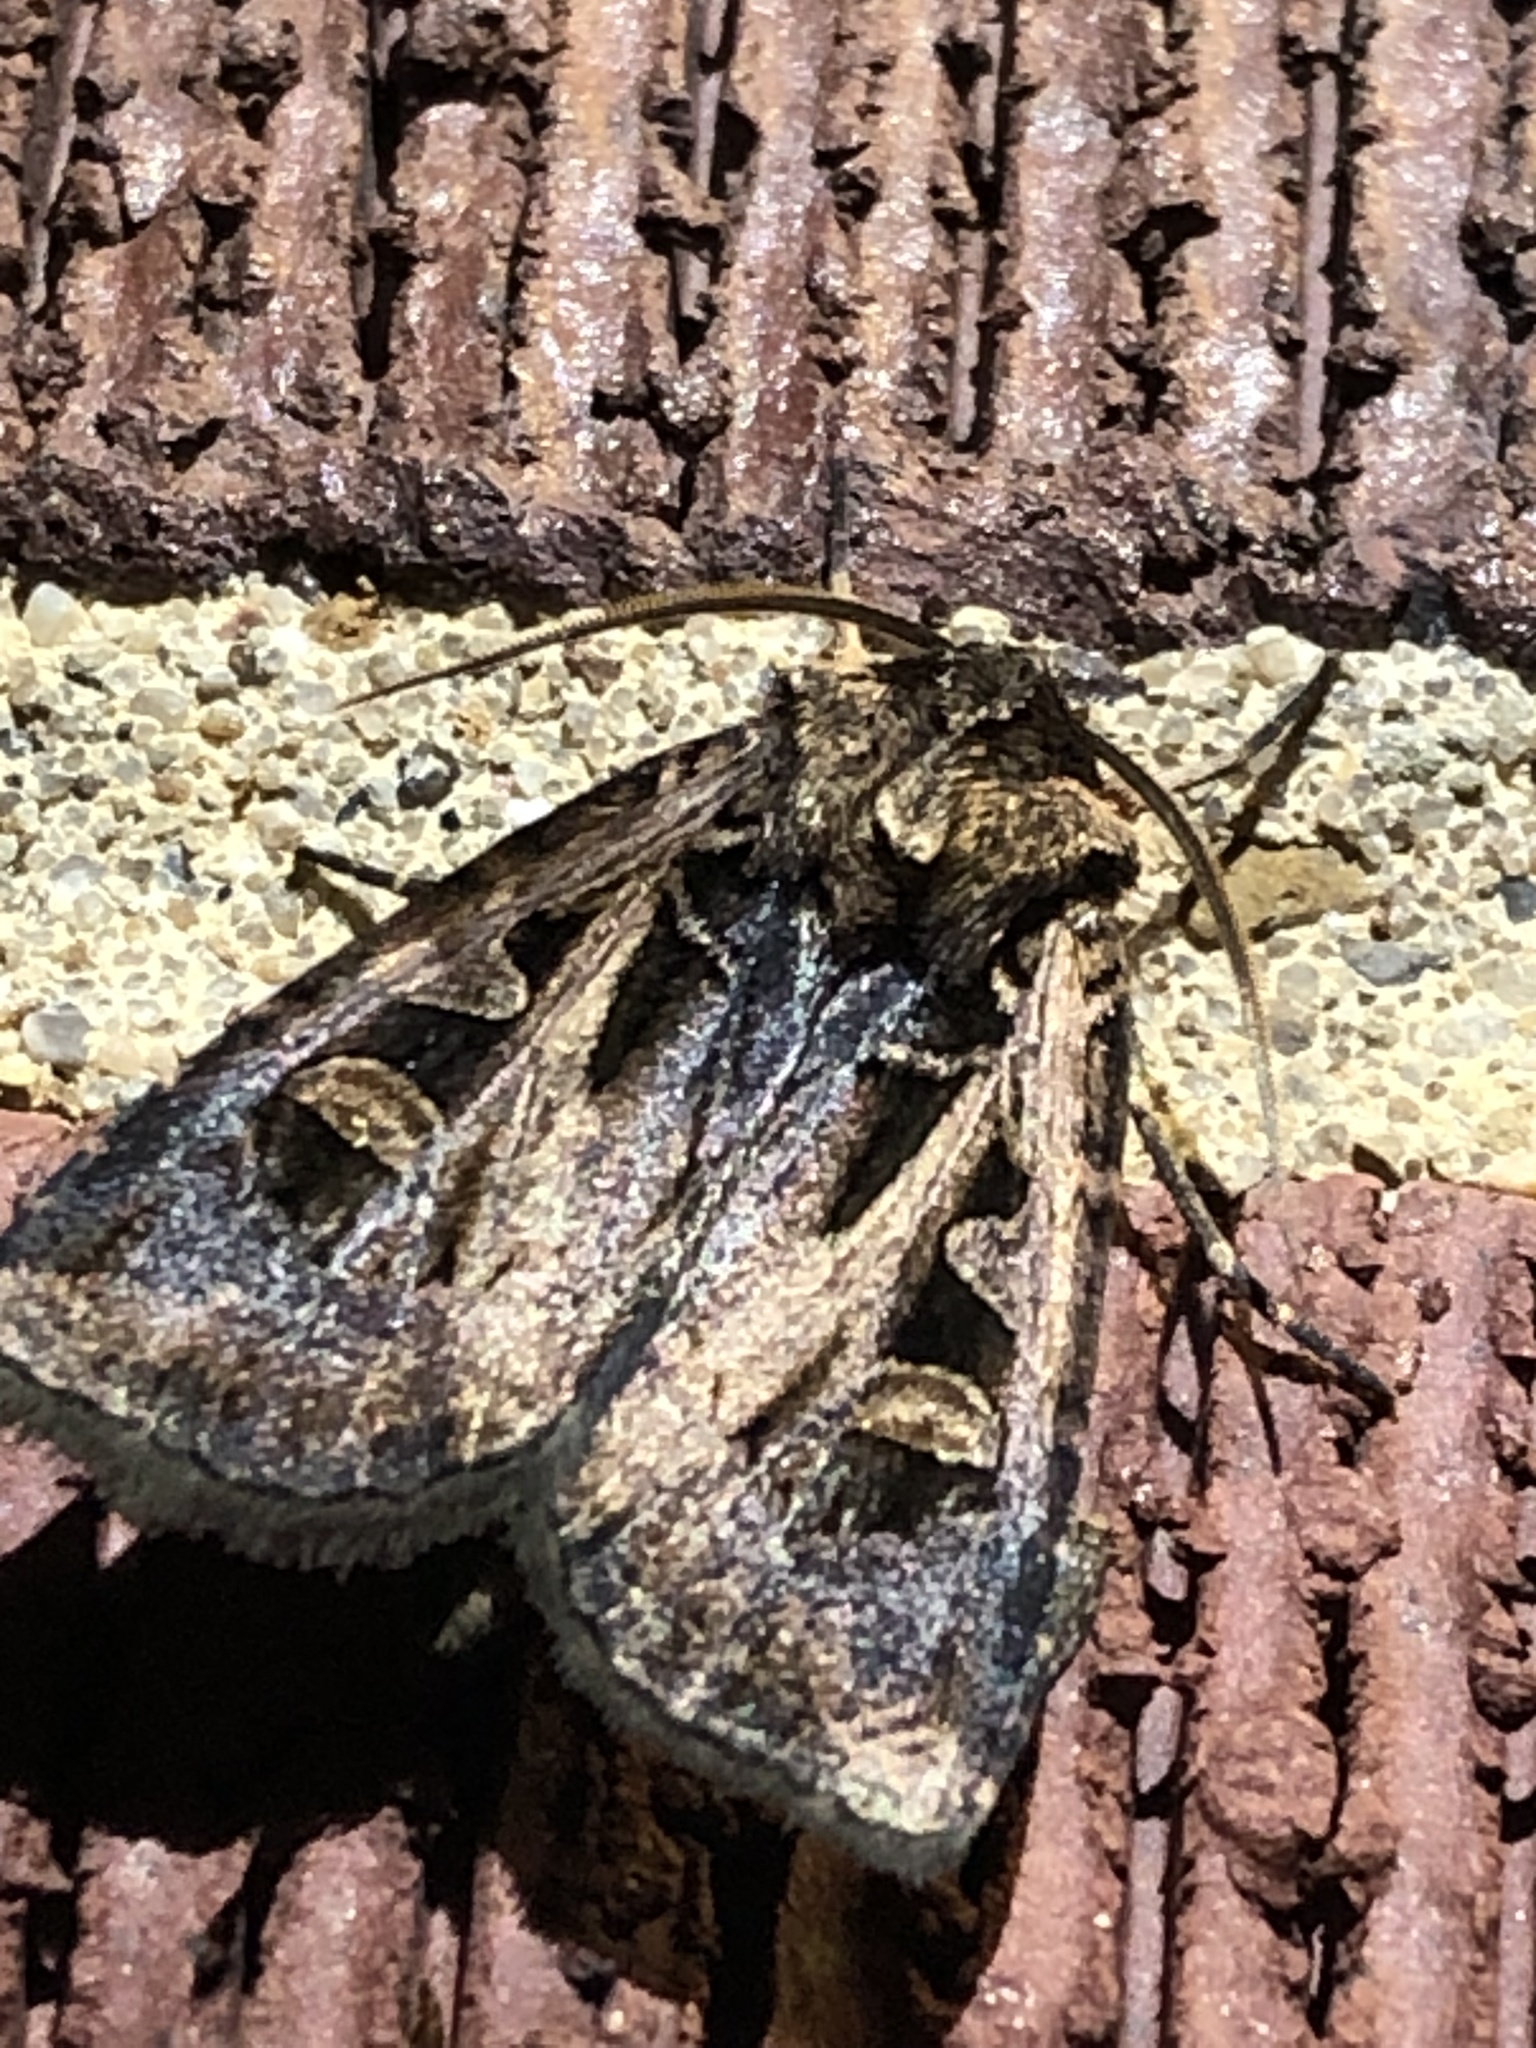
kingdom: Animalia
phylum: Arthropoda
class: Insecta
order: Lepidoptera
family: Noctuidae
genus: Feltia
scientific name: Feltia herilis
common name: Master's dart
